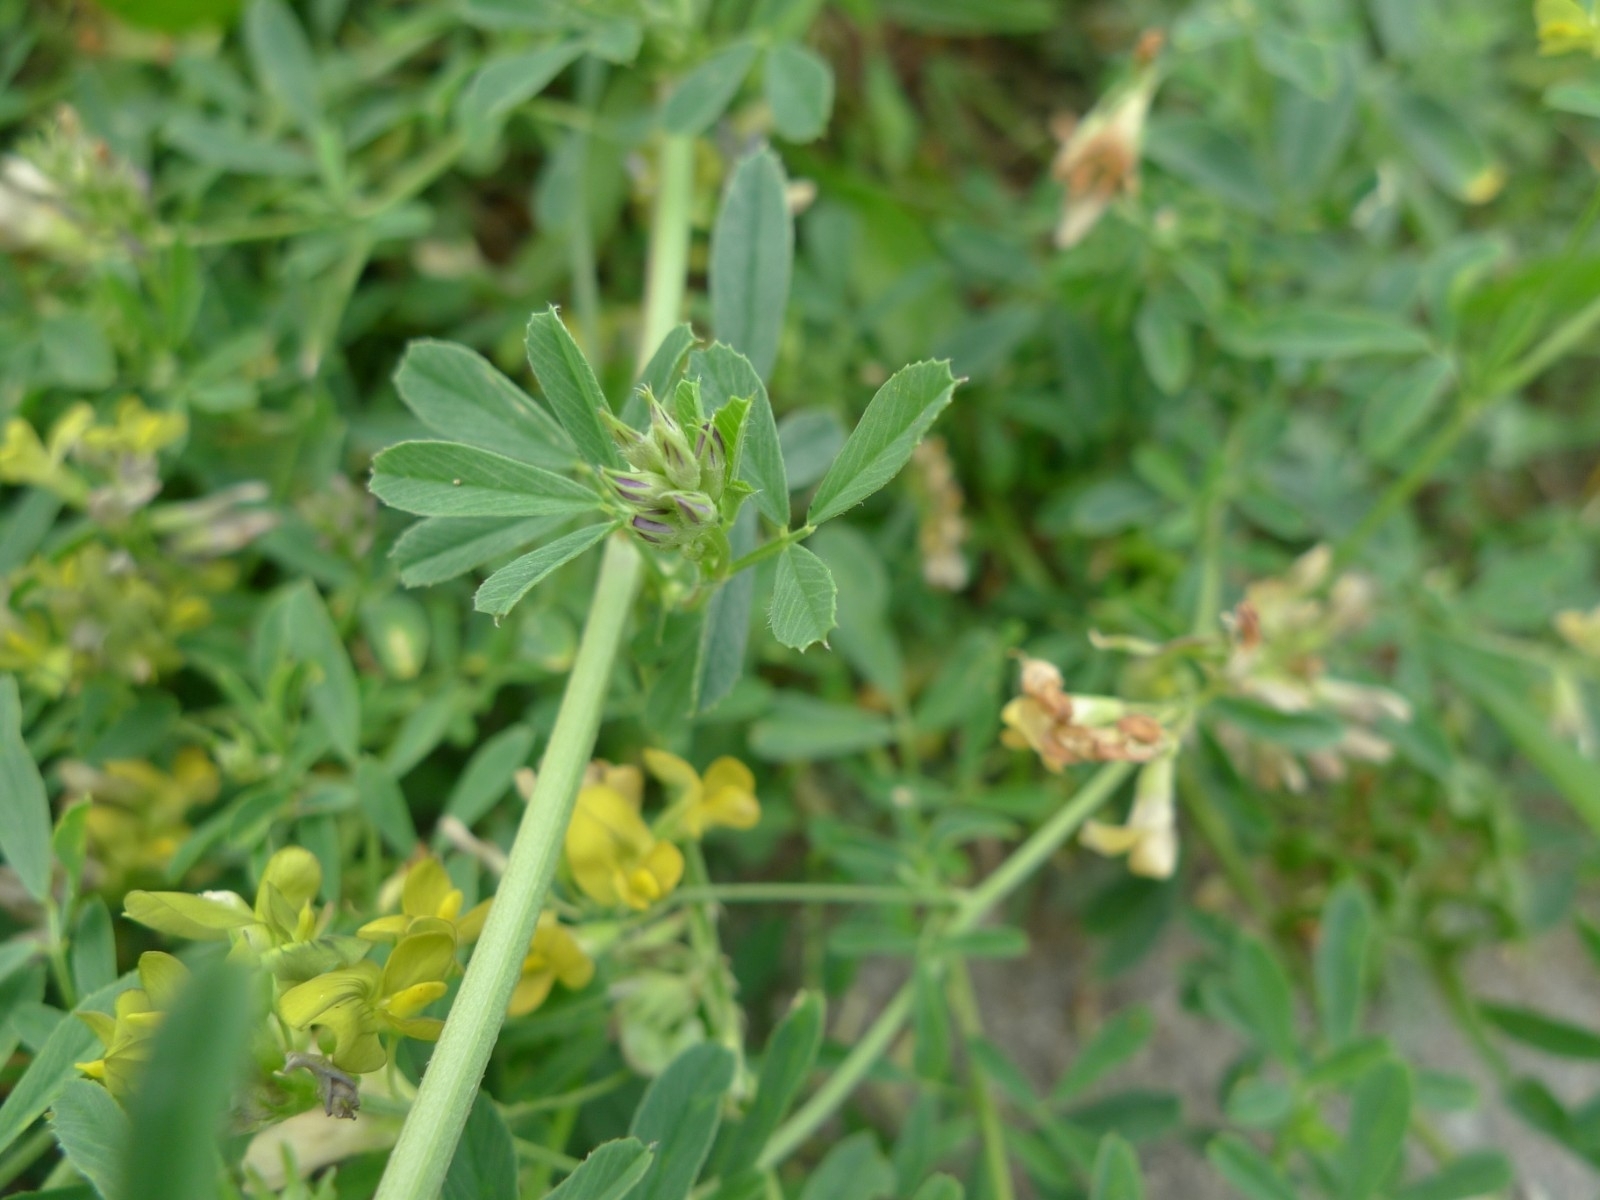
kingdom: Plantae
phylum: Tracheophyta
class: Magnoliopsida
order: Fabales
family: Fabaceae
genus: Medicago
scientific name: Medicago varia
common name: Sand lucerne
